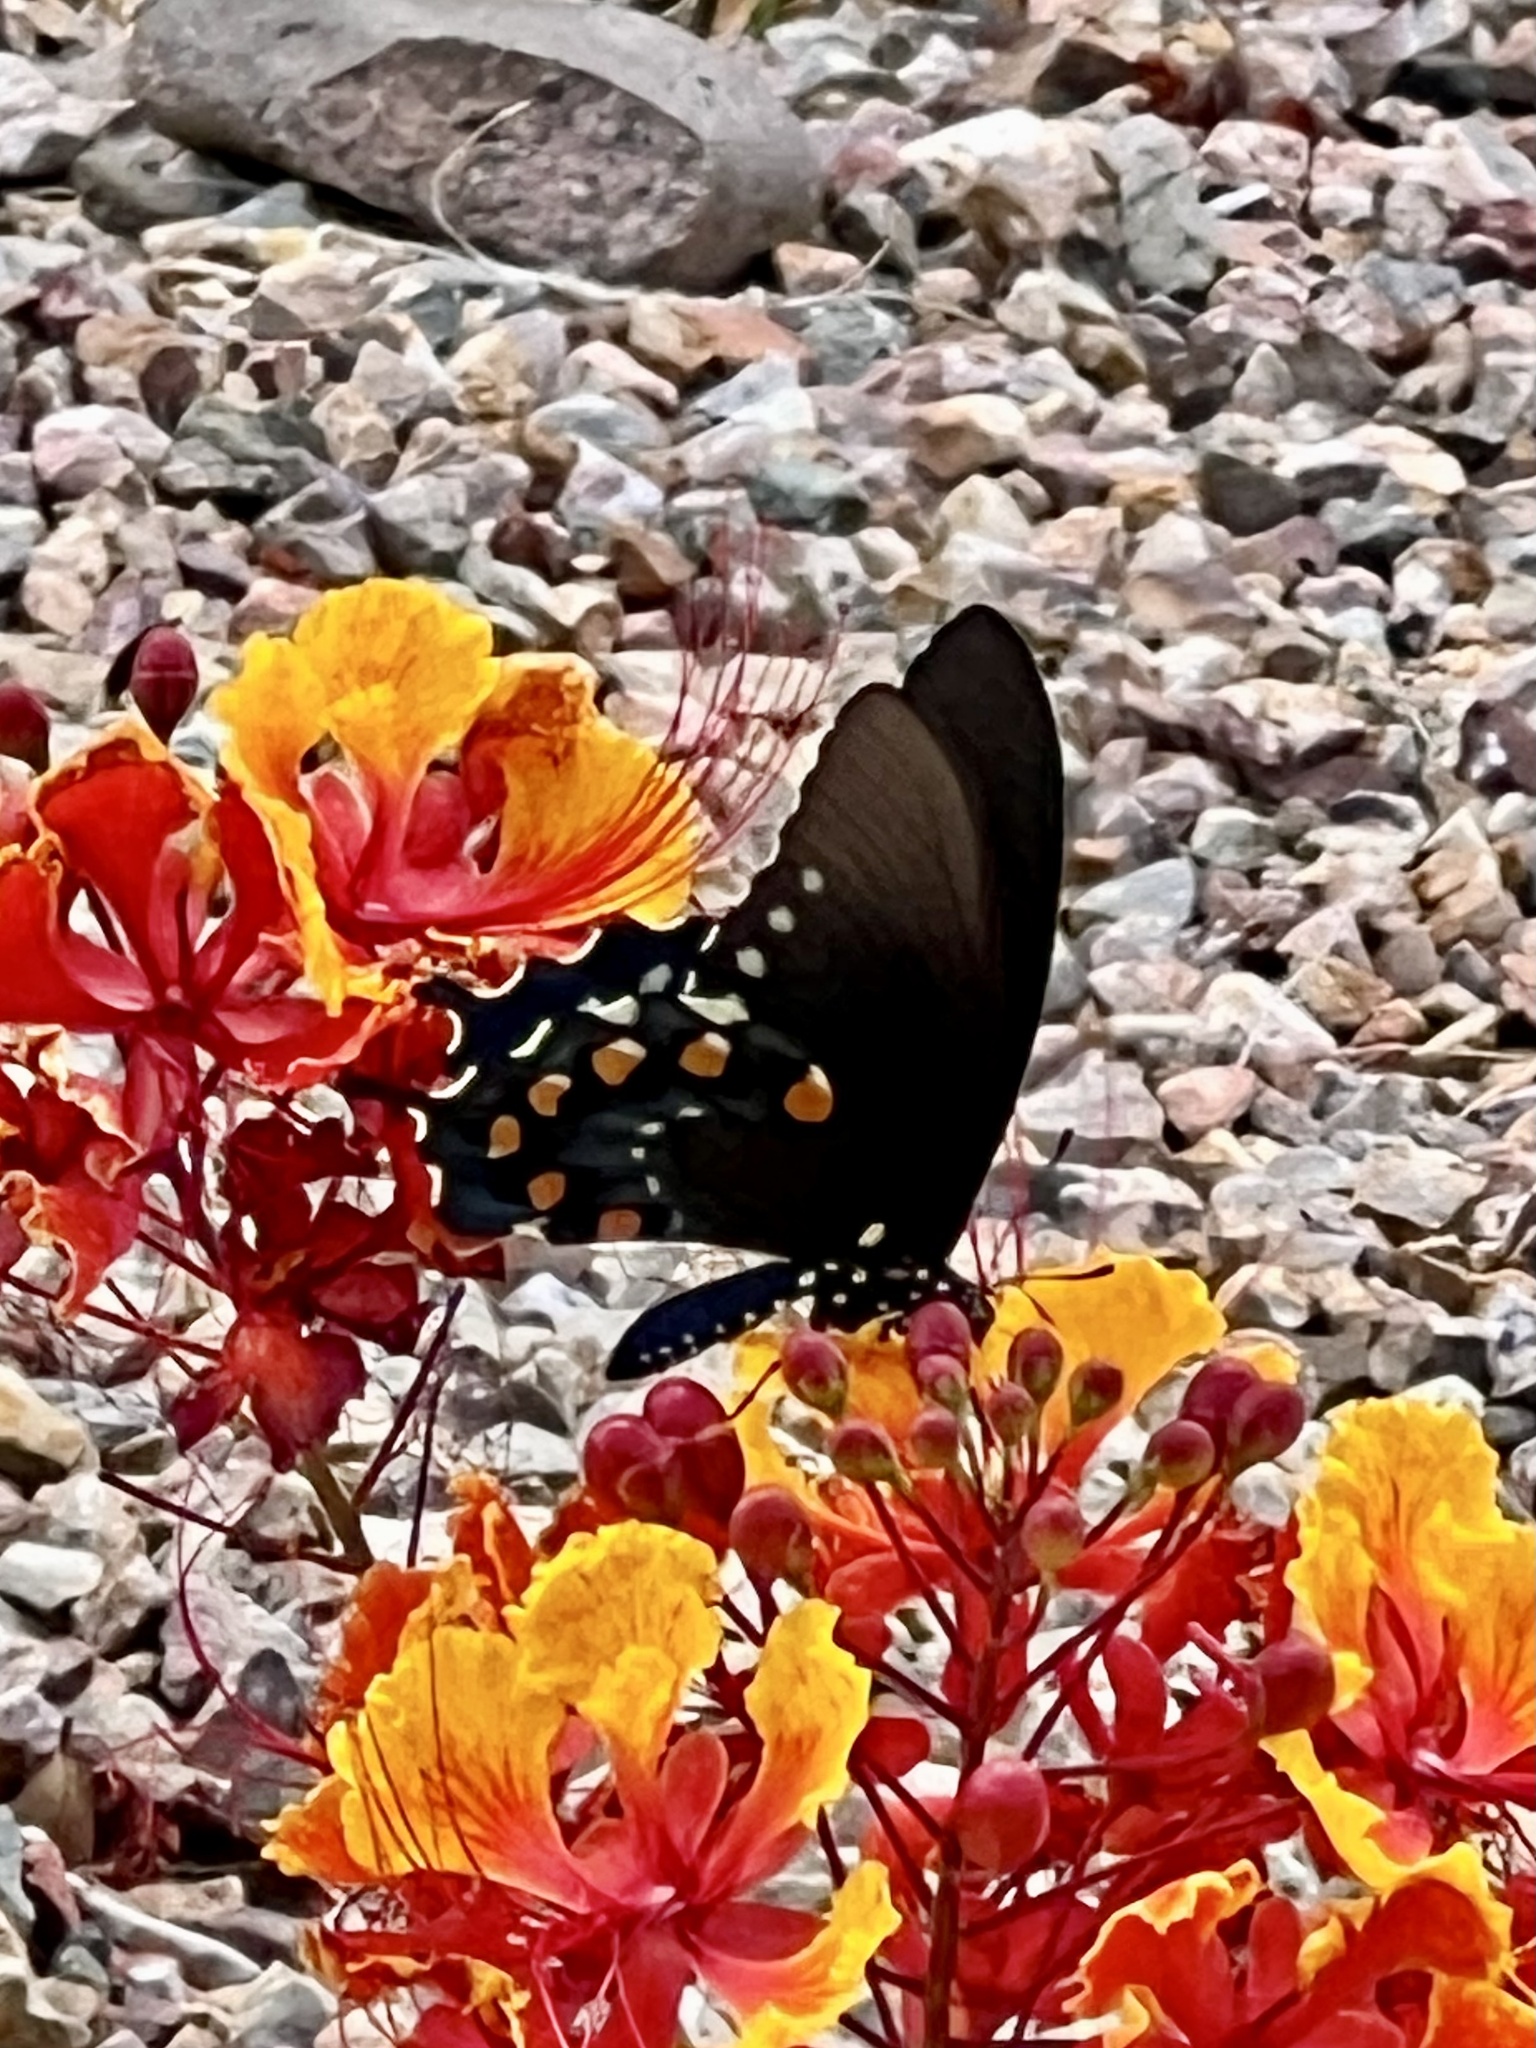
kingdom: Animalia
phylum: Arthropoda
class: Insecta
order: Lepidoptera
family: Papilionidae
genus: Battus
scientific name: Battus philenor
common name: Pipevine swallowtail
